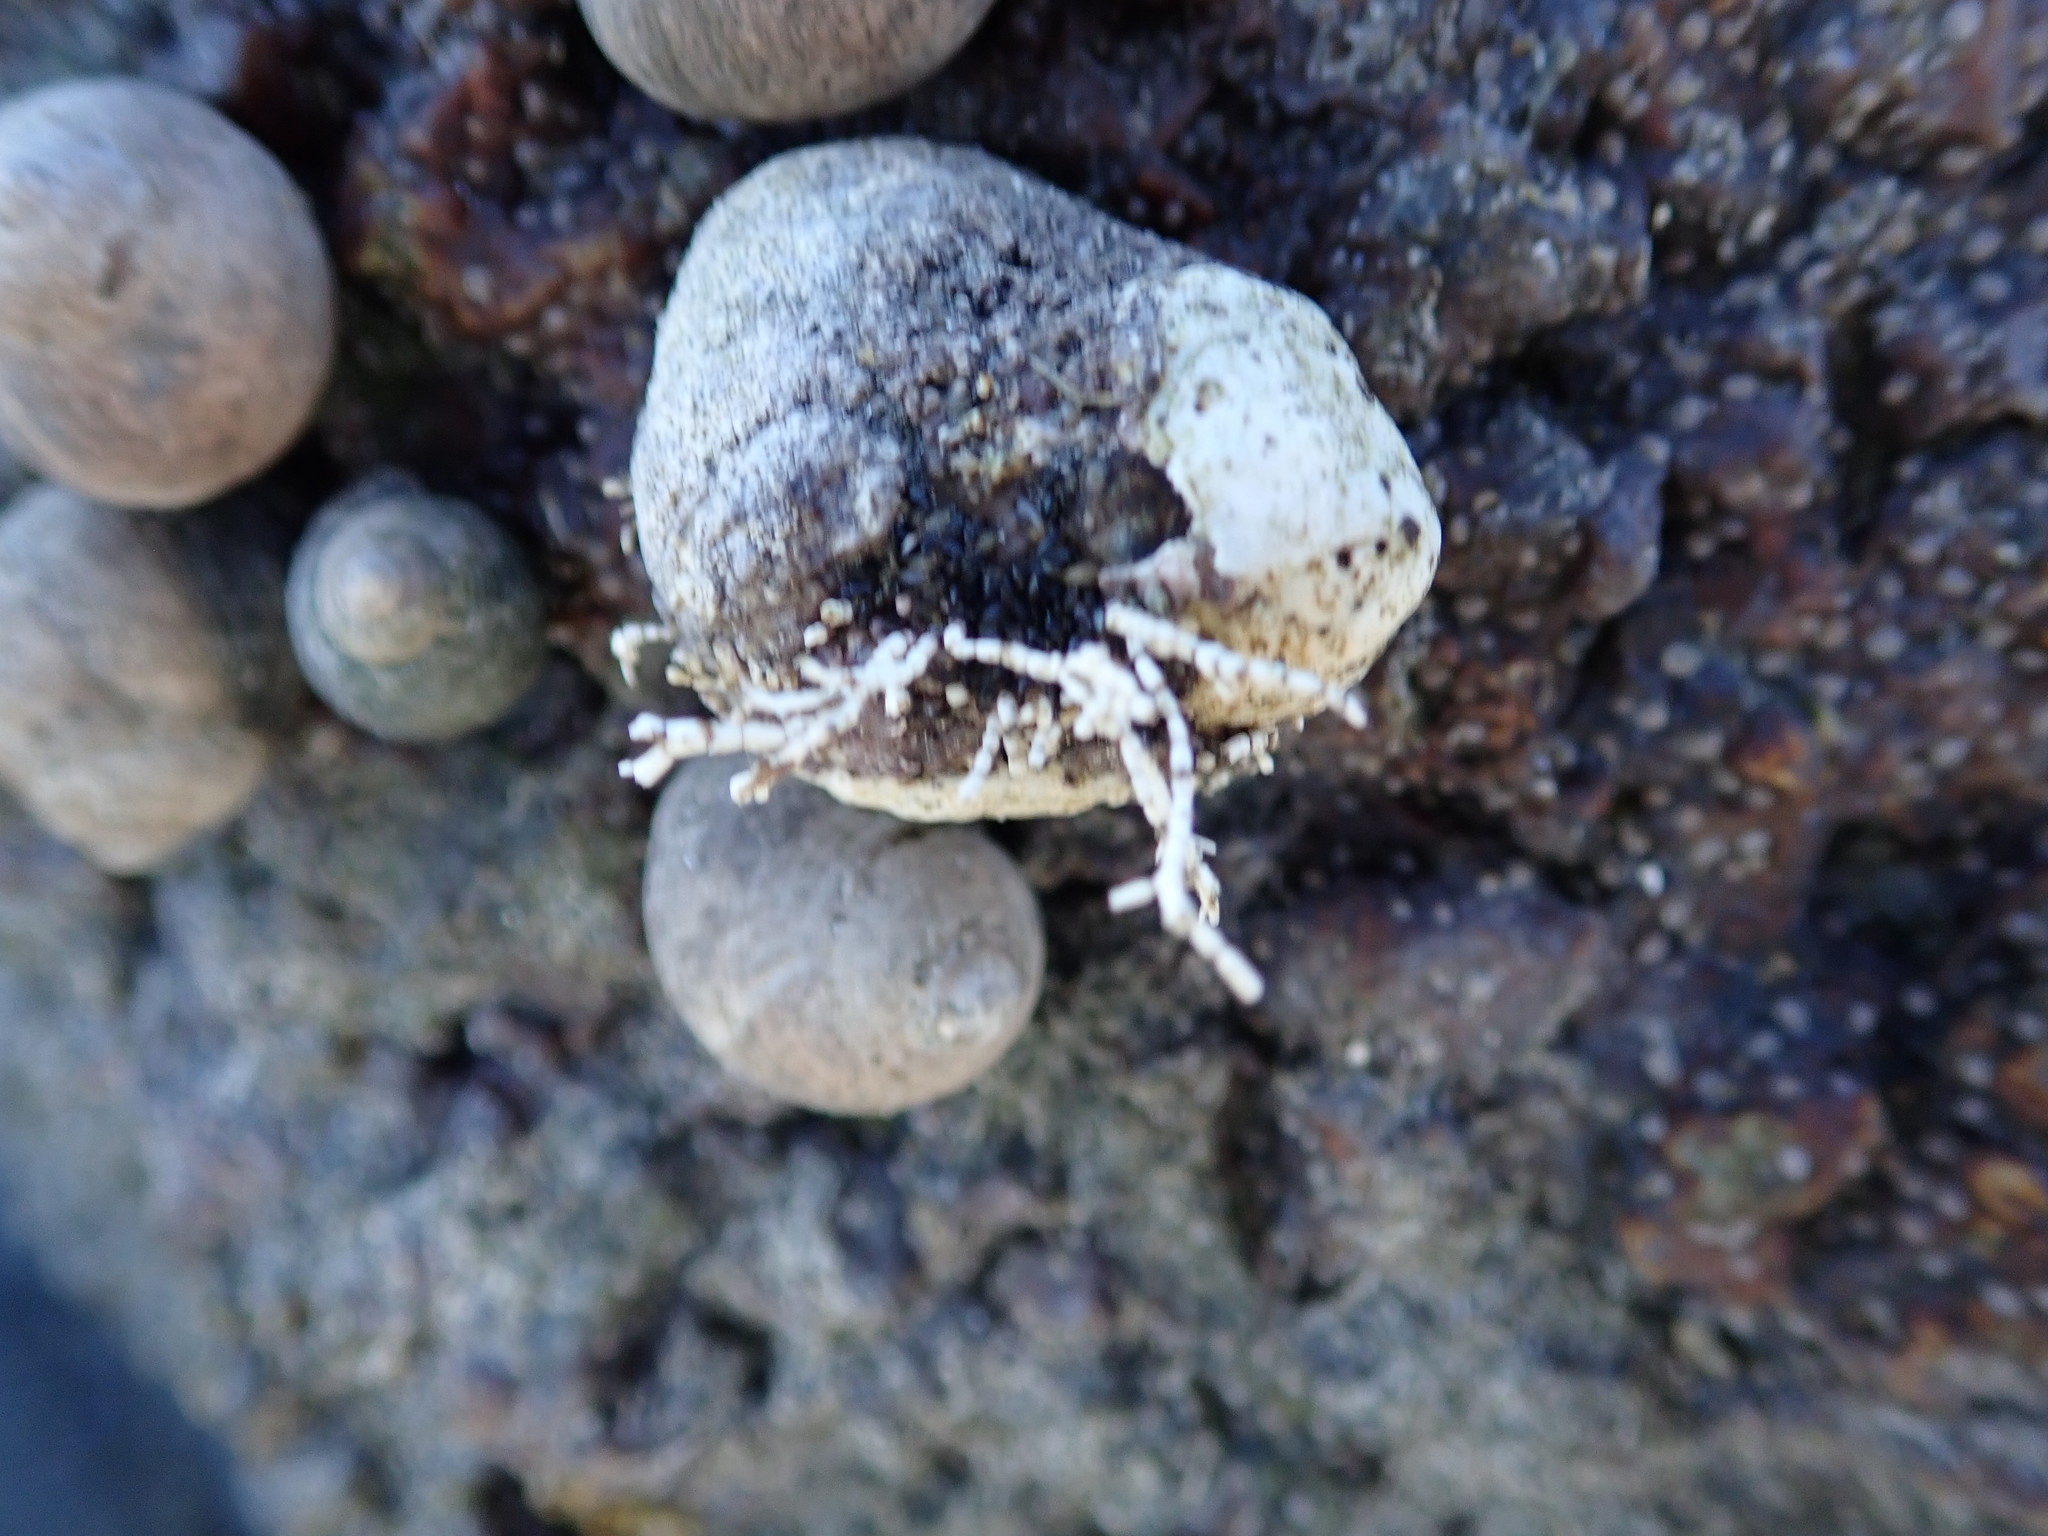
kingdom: Plantae
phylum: Rhodophyta
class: Florideophyceae
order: Corallinales
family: Corallinaceae
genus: Corallina
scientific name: Corallina officinalis
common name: Coral weed
